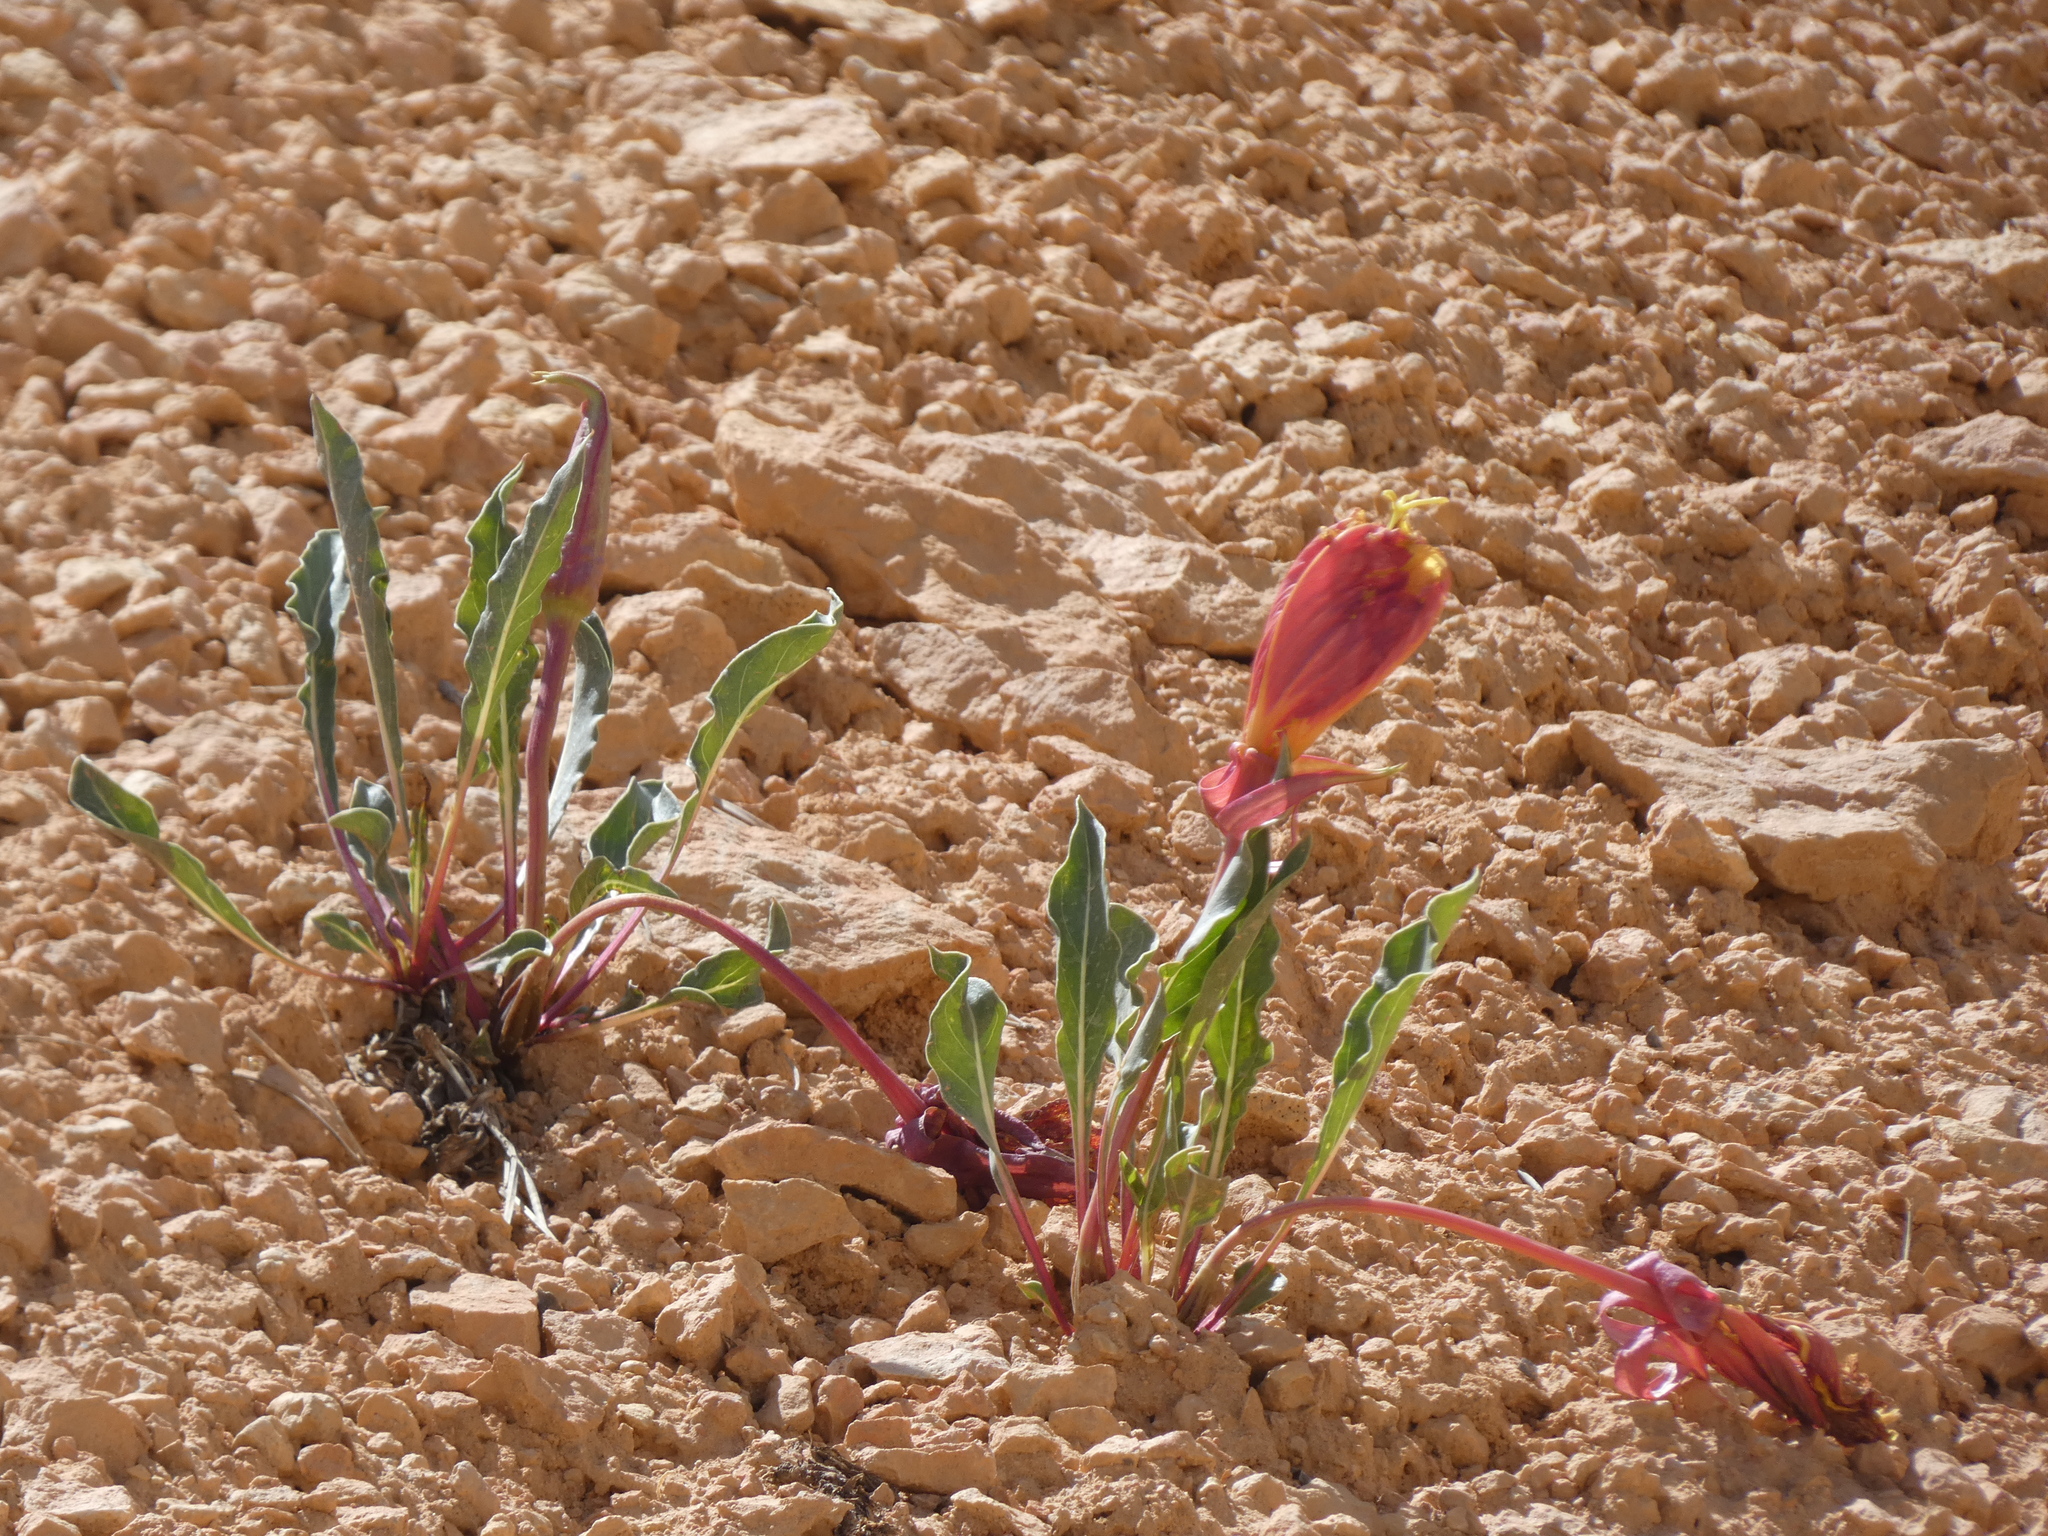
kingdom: Plantae
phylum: Tracheophyta
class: Magnoliopsida
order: Myrtales
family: Onagraceae
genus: Oenothera
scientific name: Oenothera howardii
